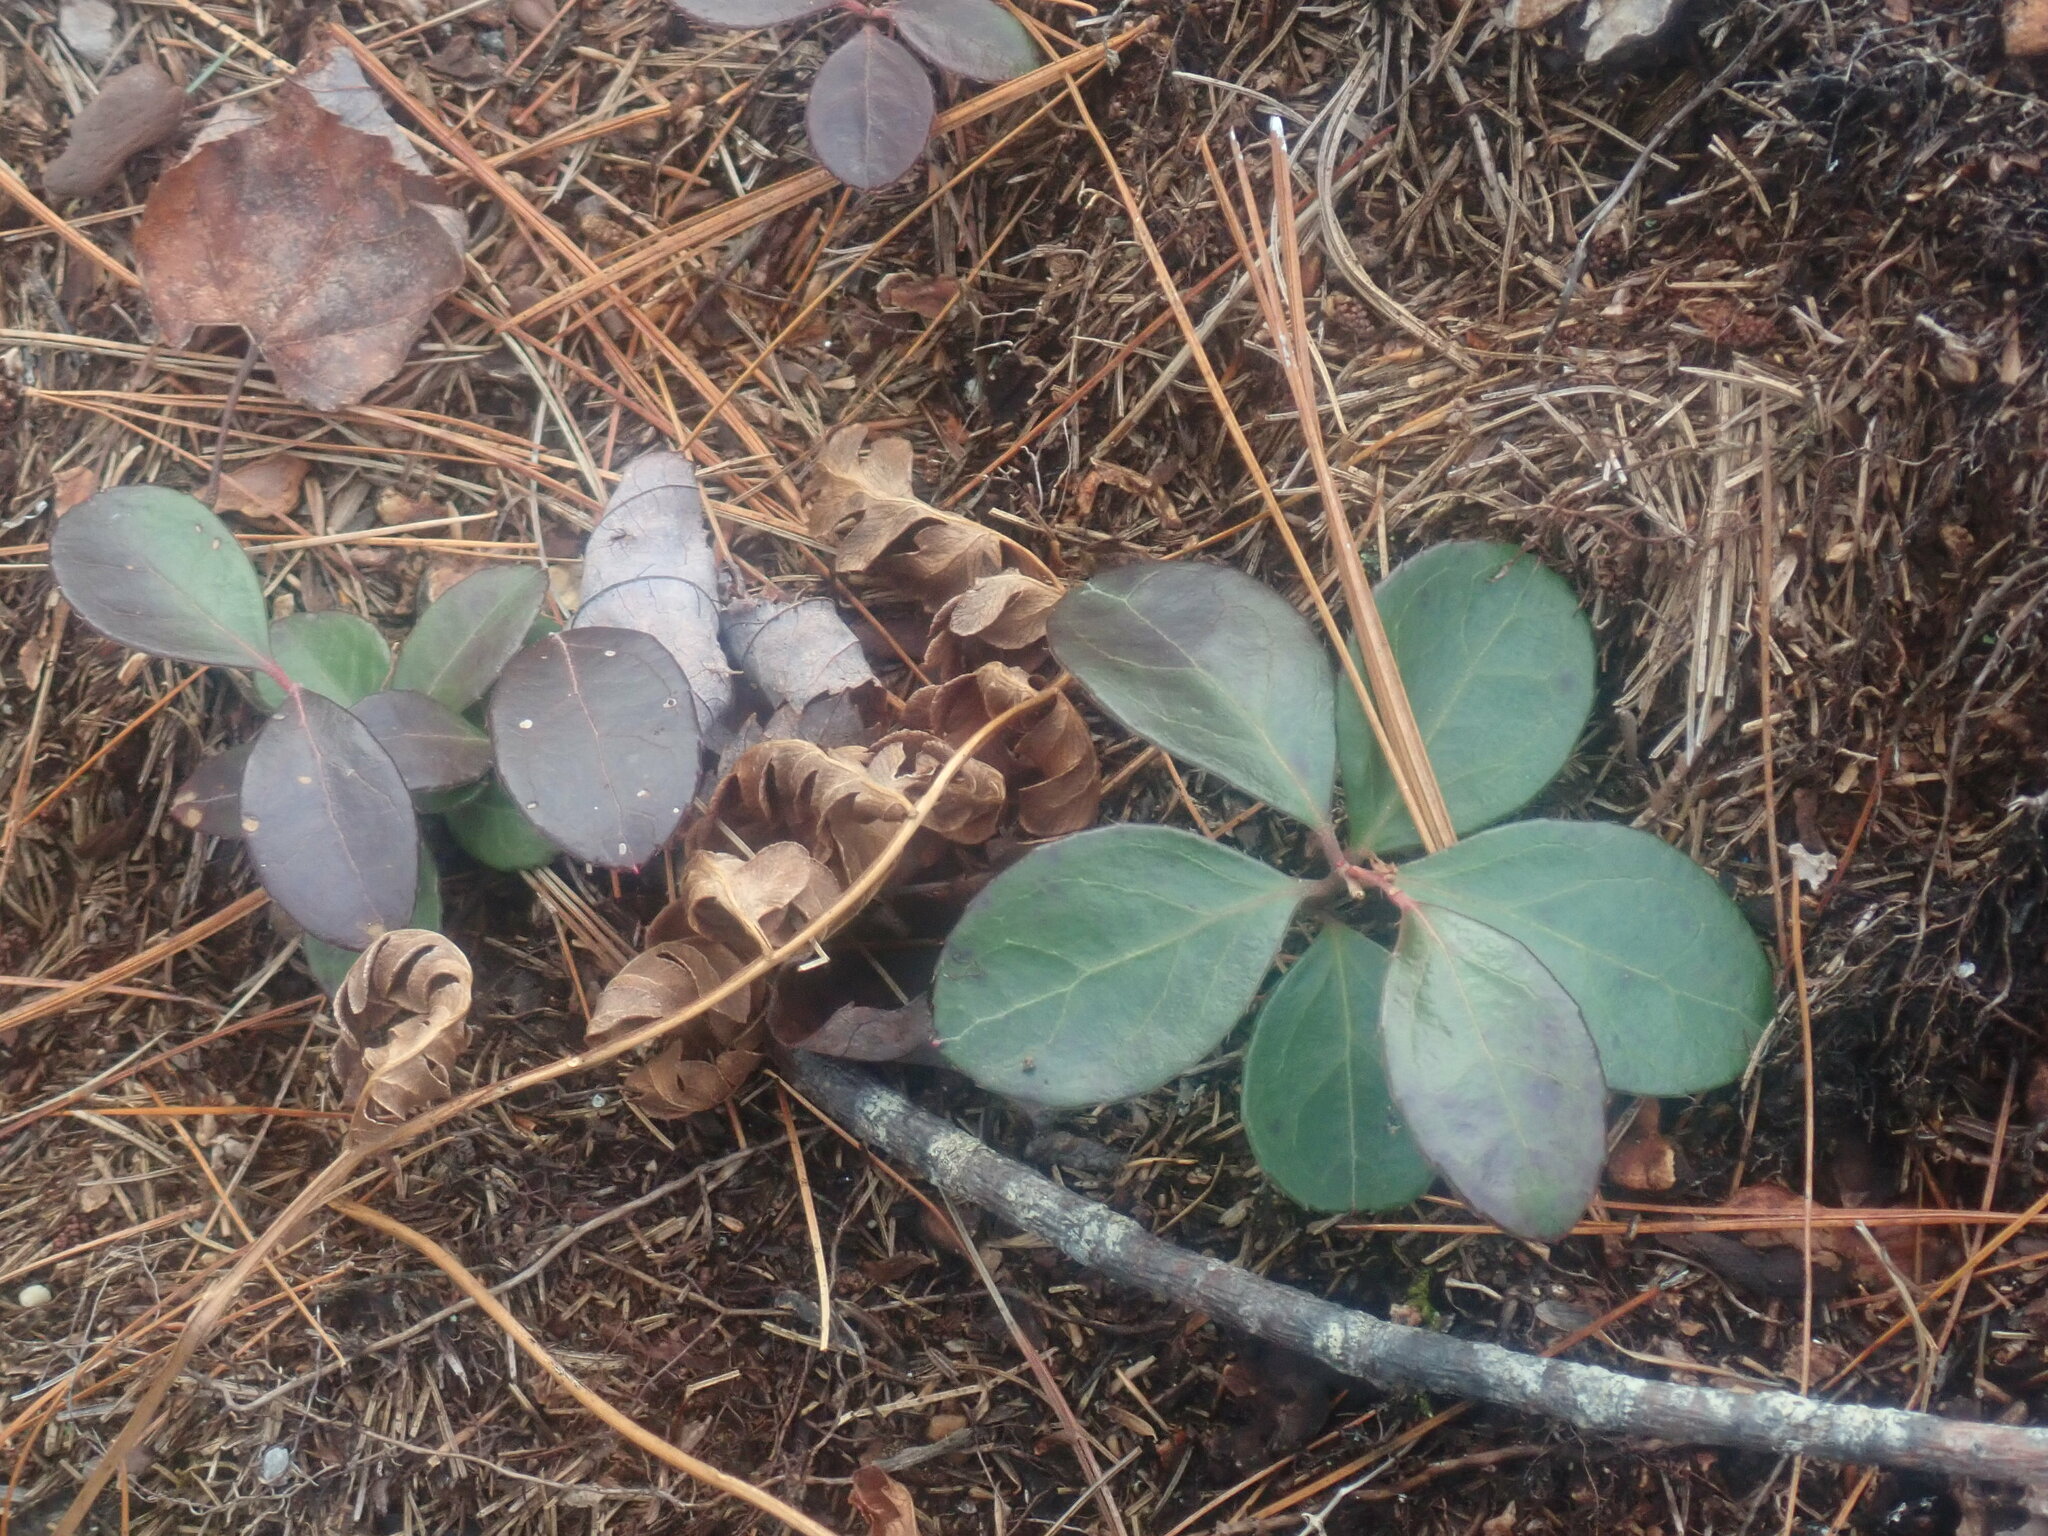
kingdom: Plantae
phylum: Tracheophyta
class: Magnoliopsida
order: Ericales
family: Ericaceae
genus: Gaultheria
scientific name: Gaultheria procumbens
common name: Checkerberry
